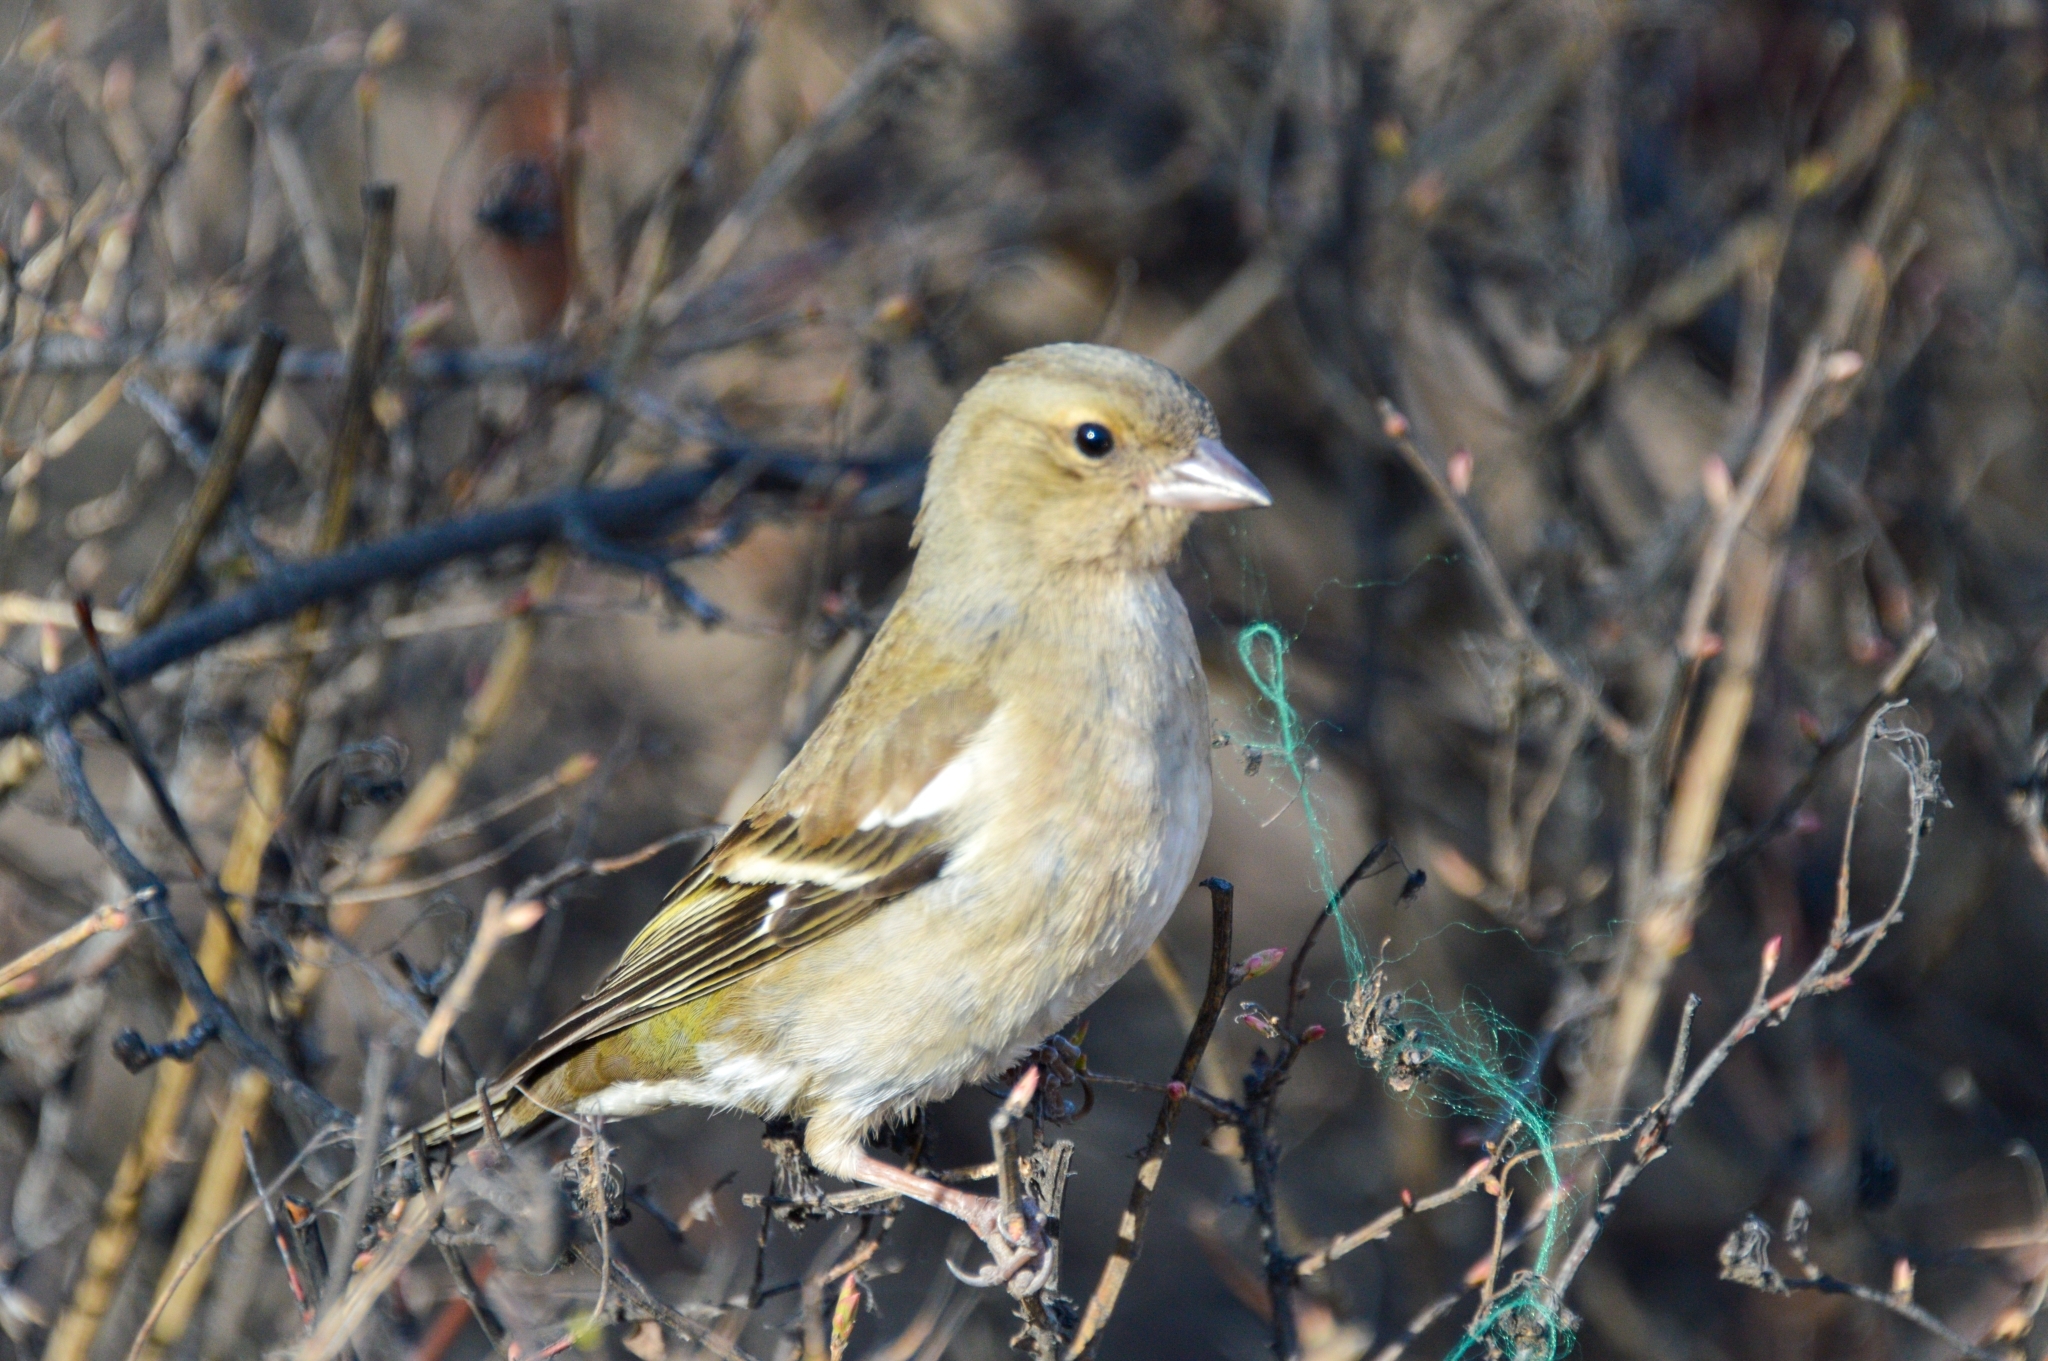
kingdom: Animalia
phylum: Chordata
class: Aves
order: Passeriformes
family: Fringillidae
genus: Fringilla
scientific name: Fringilla coelebs
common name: Common chaffinch
